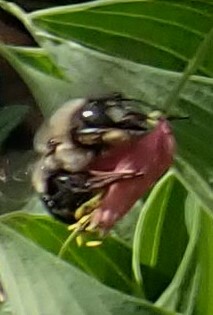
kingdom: Animalia
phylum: Arthropoda
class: Insecta
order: Hymenoptera
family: Apidae
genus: Xylocopa
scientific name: Xylocopa virginica
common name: Carpenter bee
